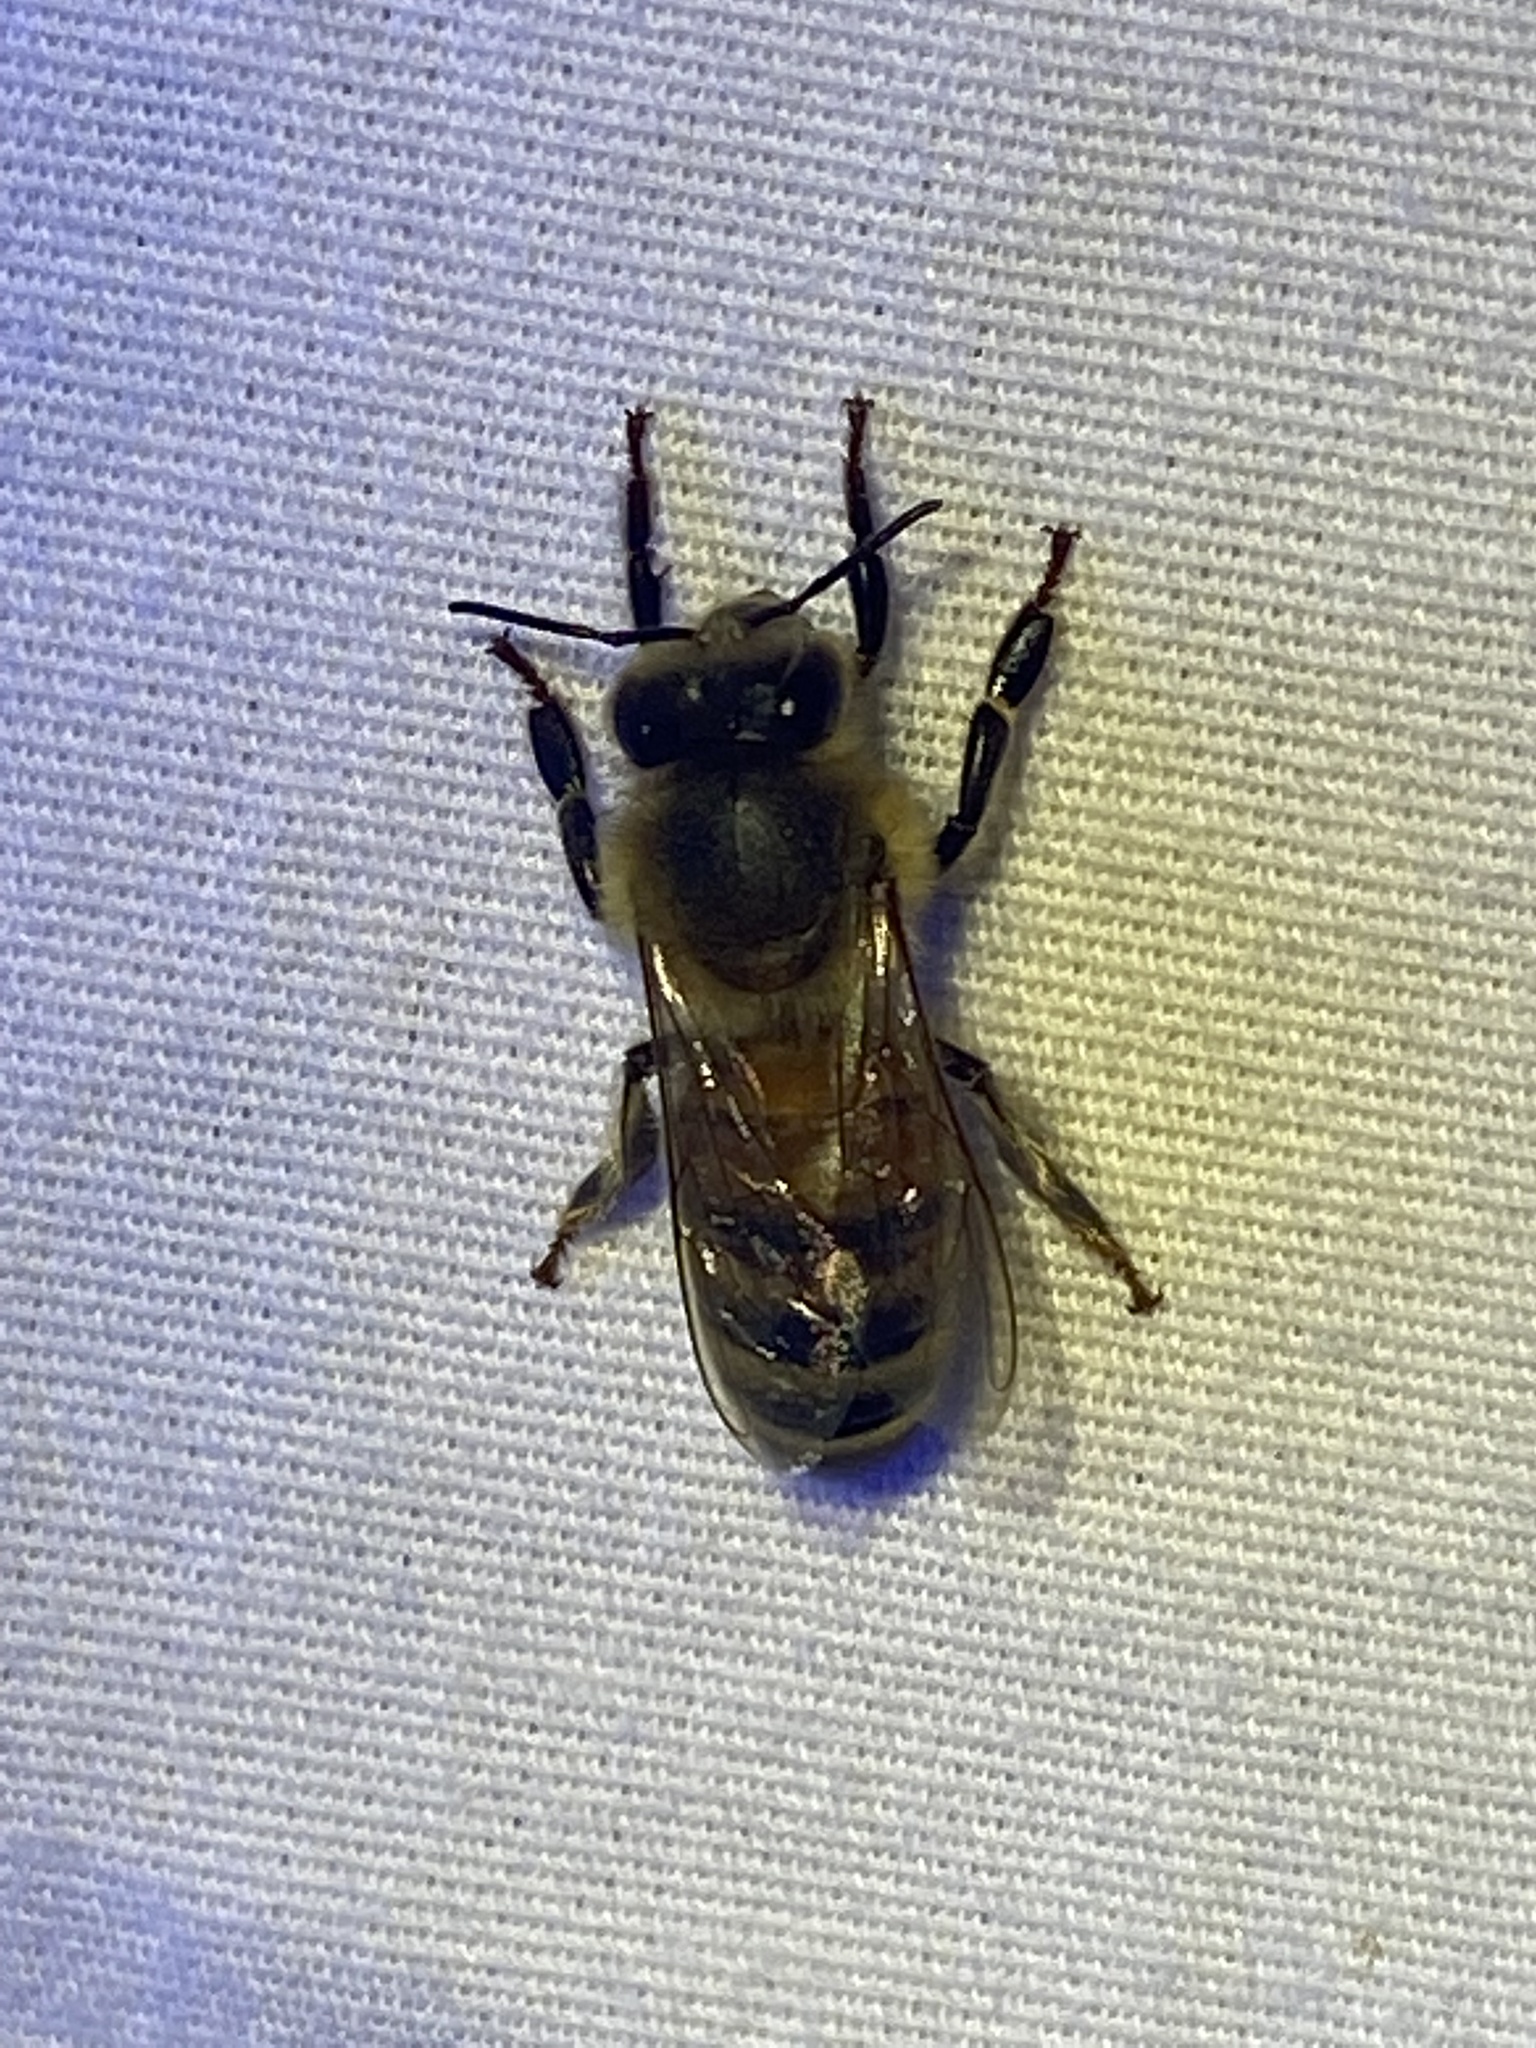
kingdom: Animalia
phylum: Arthropoda
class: Insecta
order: Hymenoptera
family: Apidae
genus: Apis
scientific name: Apis mellifera
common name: Honey bee
